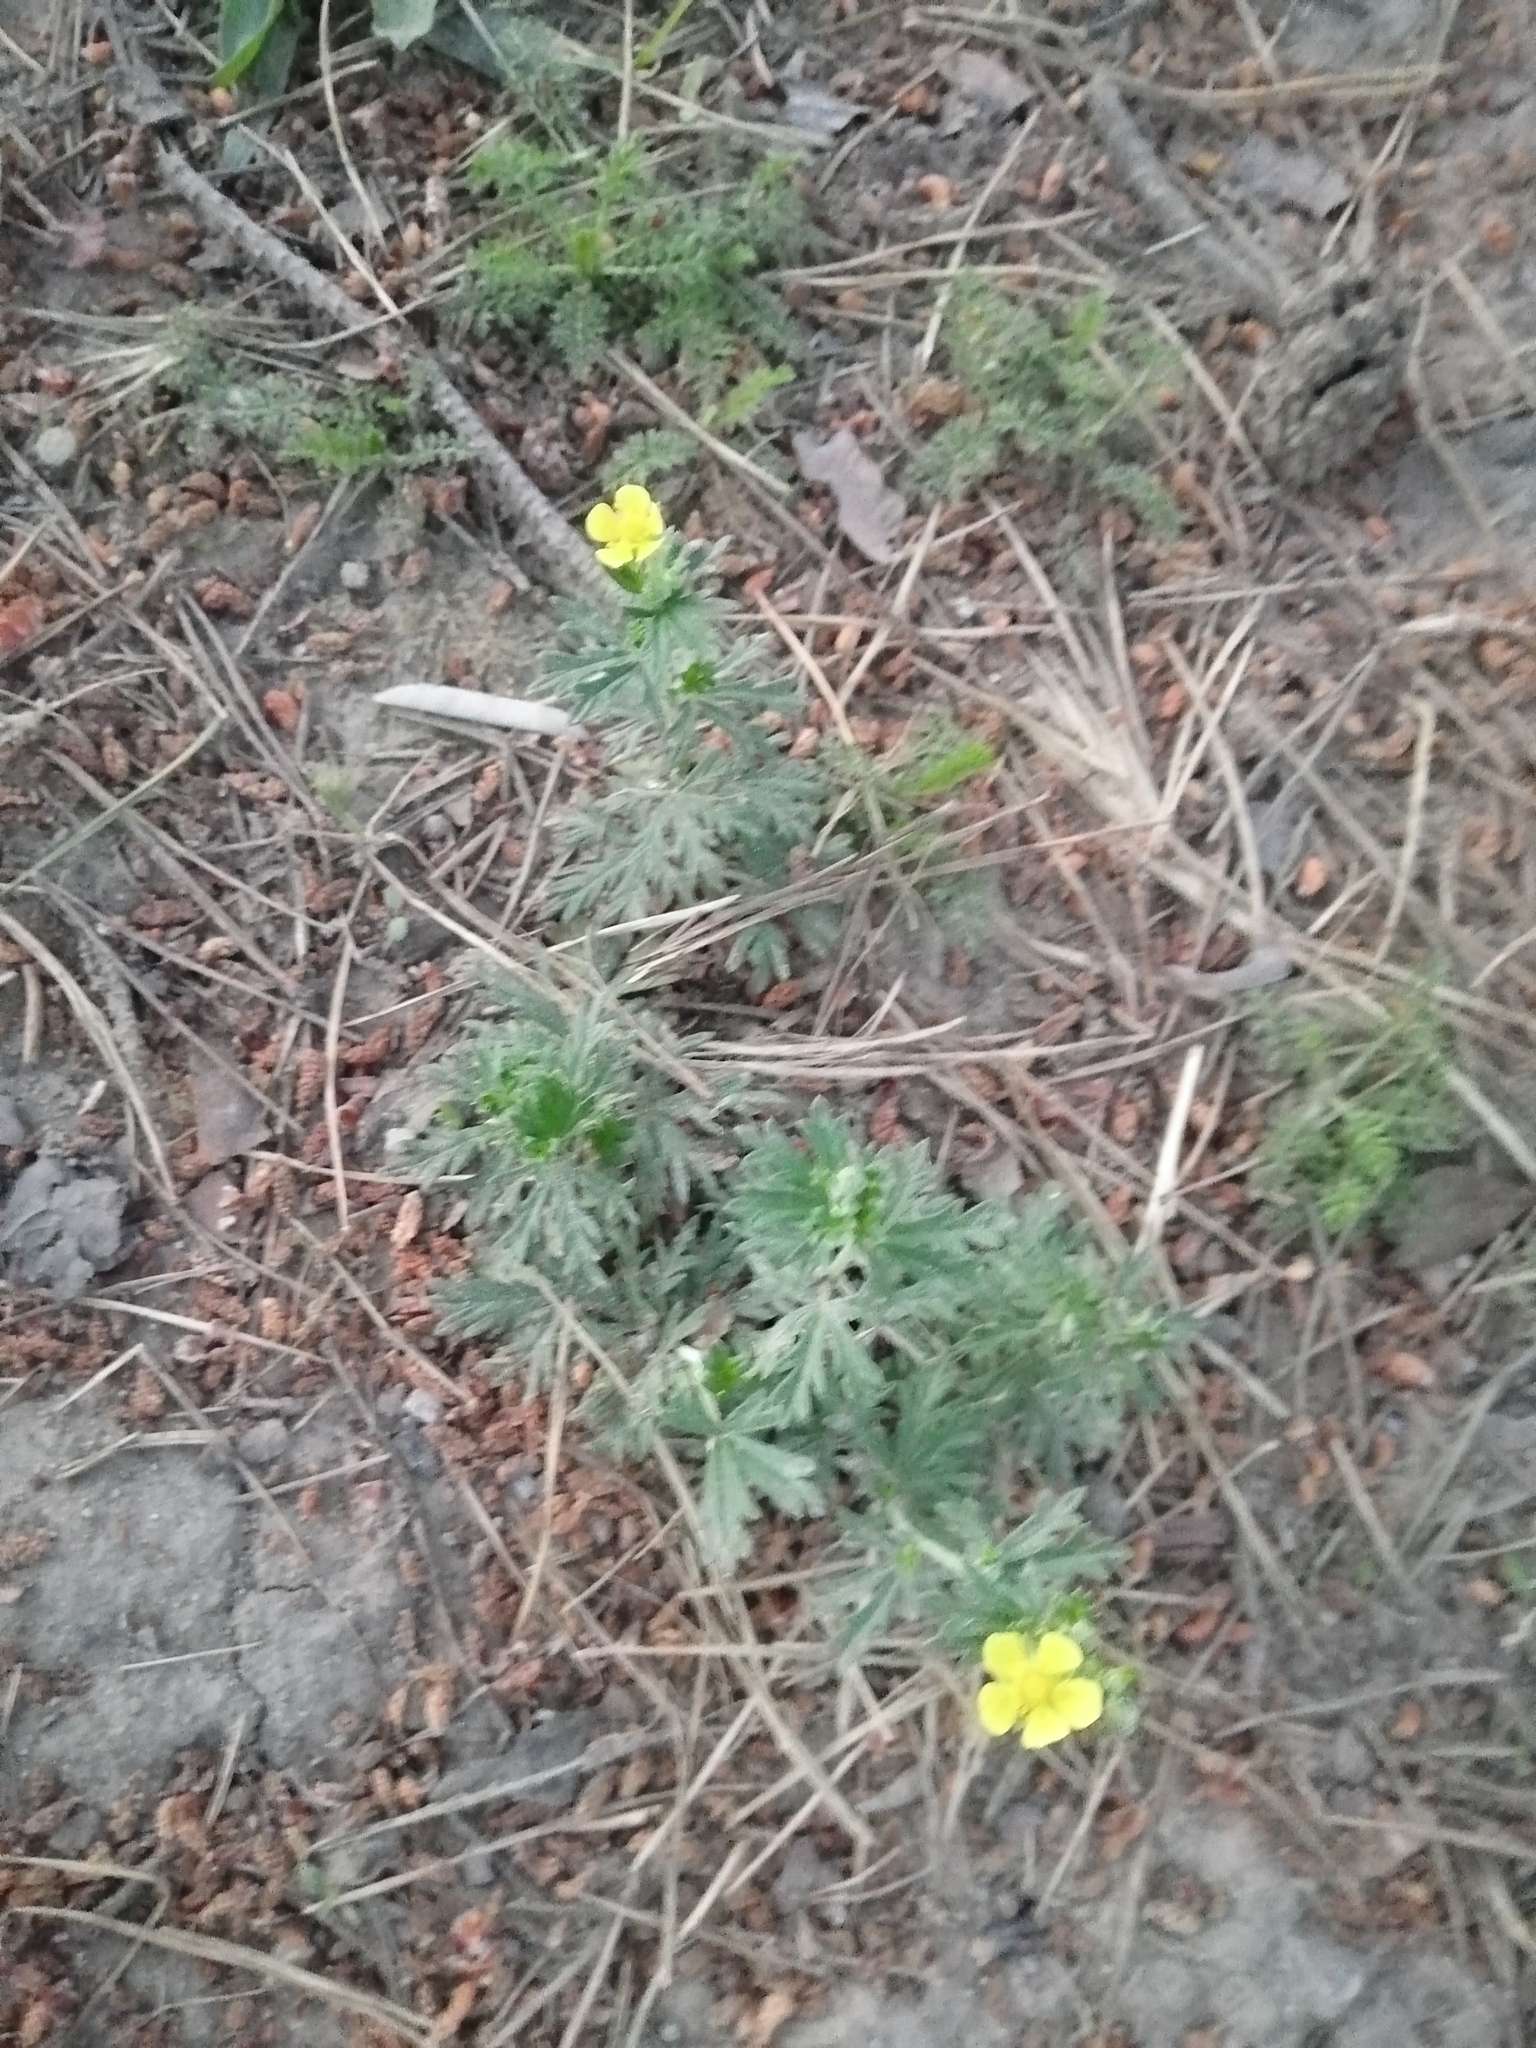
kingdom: Plantae
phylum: Tracheophyta
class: Magnoliopsida
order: Rosales
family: Rosaceae
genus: Potentilla
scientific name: Potentilla argentea
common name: Hoary cinquefoil
